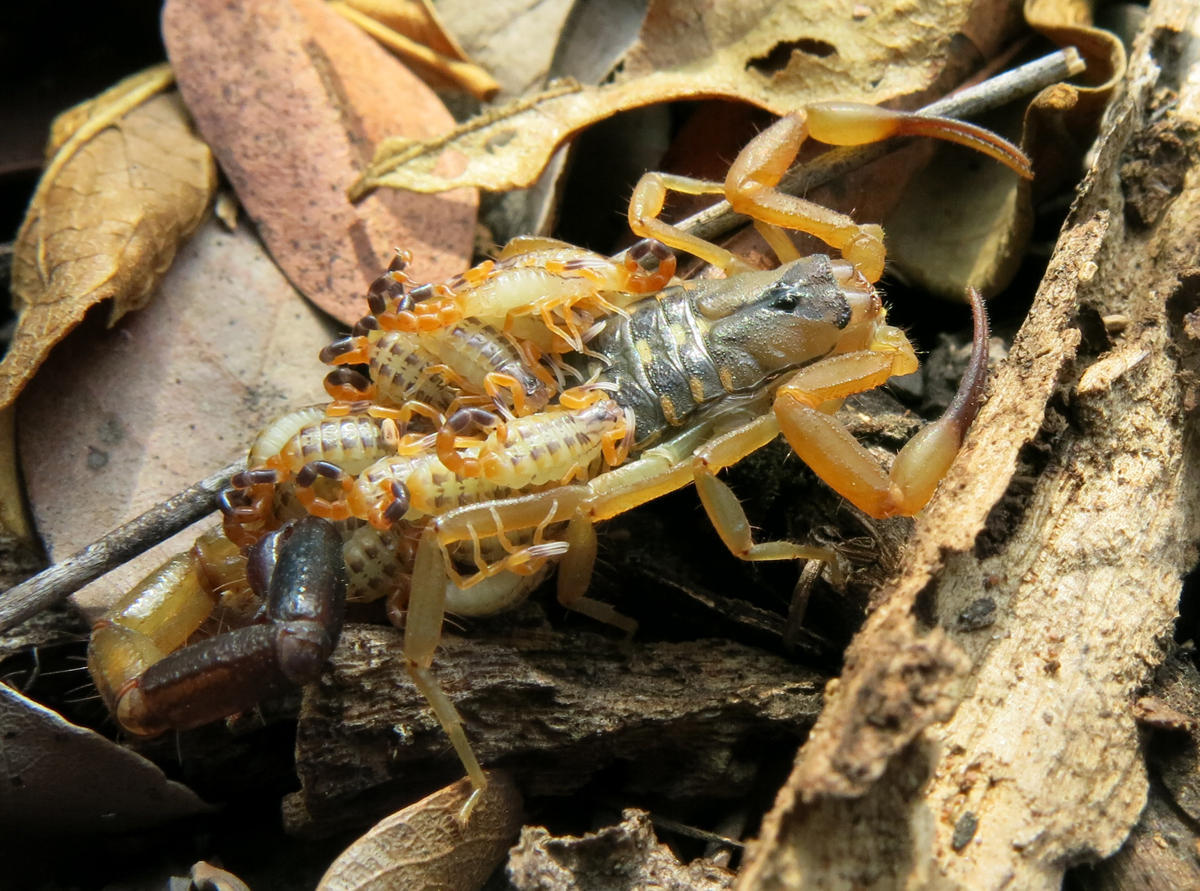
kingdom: Animalia
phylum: Arthropoda
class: Arachnida
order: Scorpiones
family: Buthidae
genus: Uroplectes
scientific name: Uroplectes vittatus
